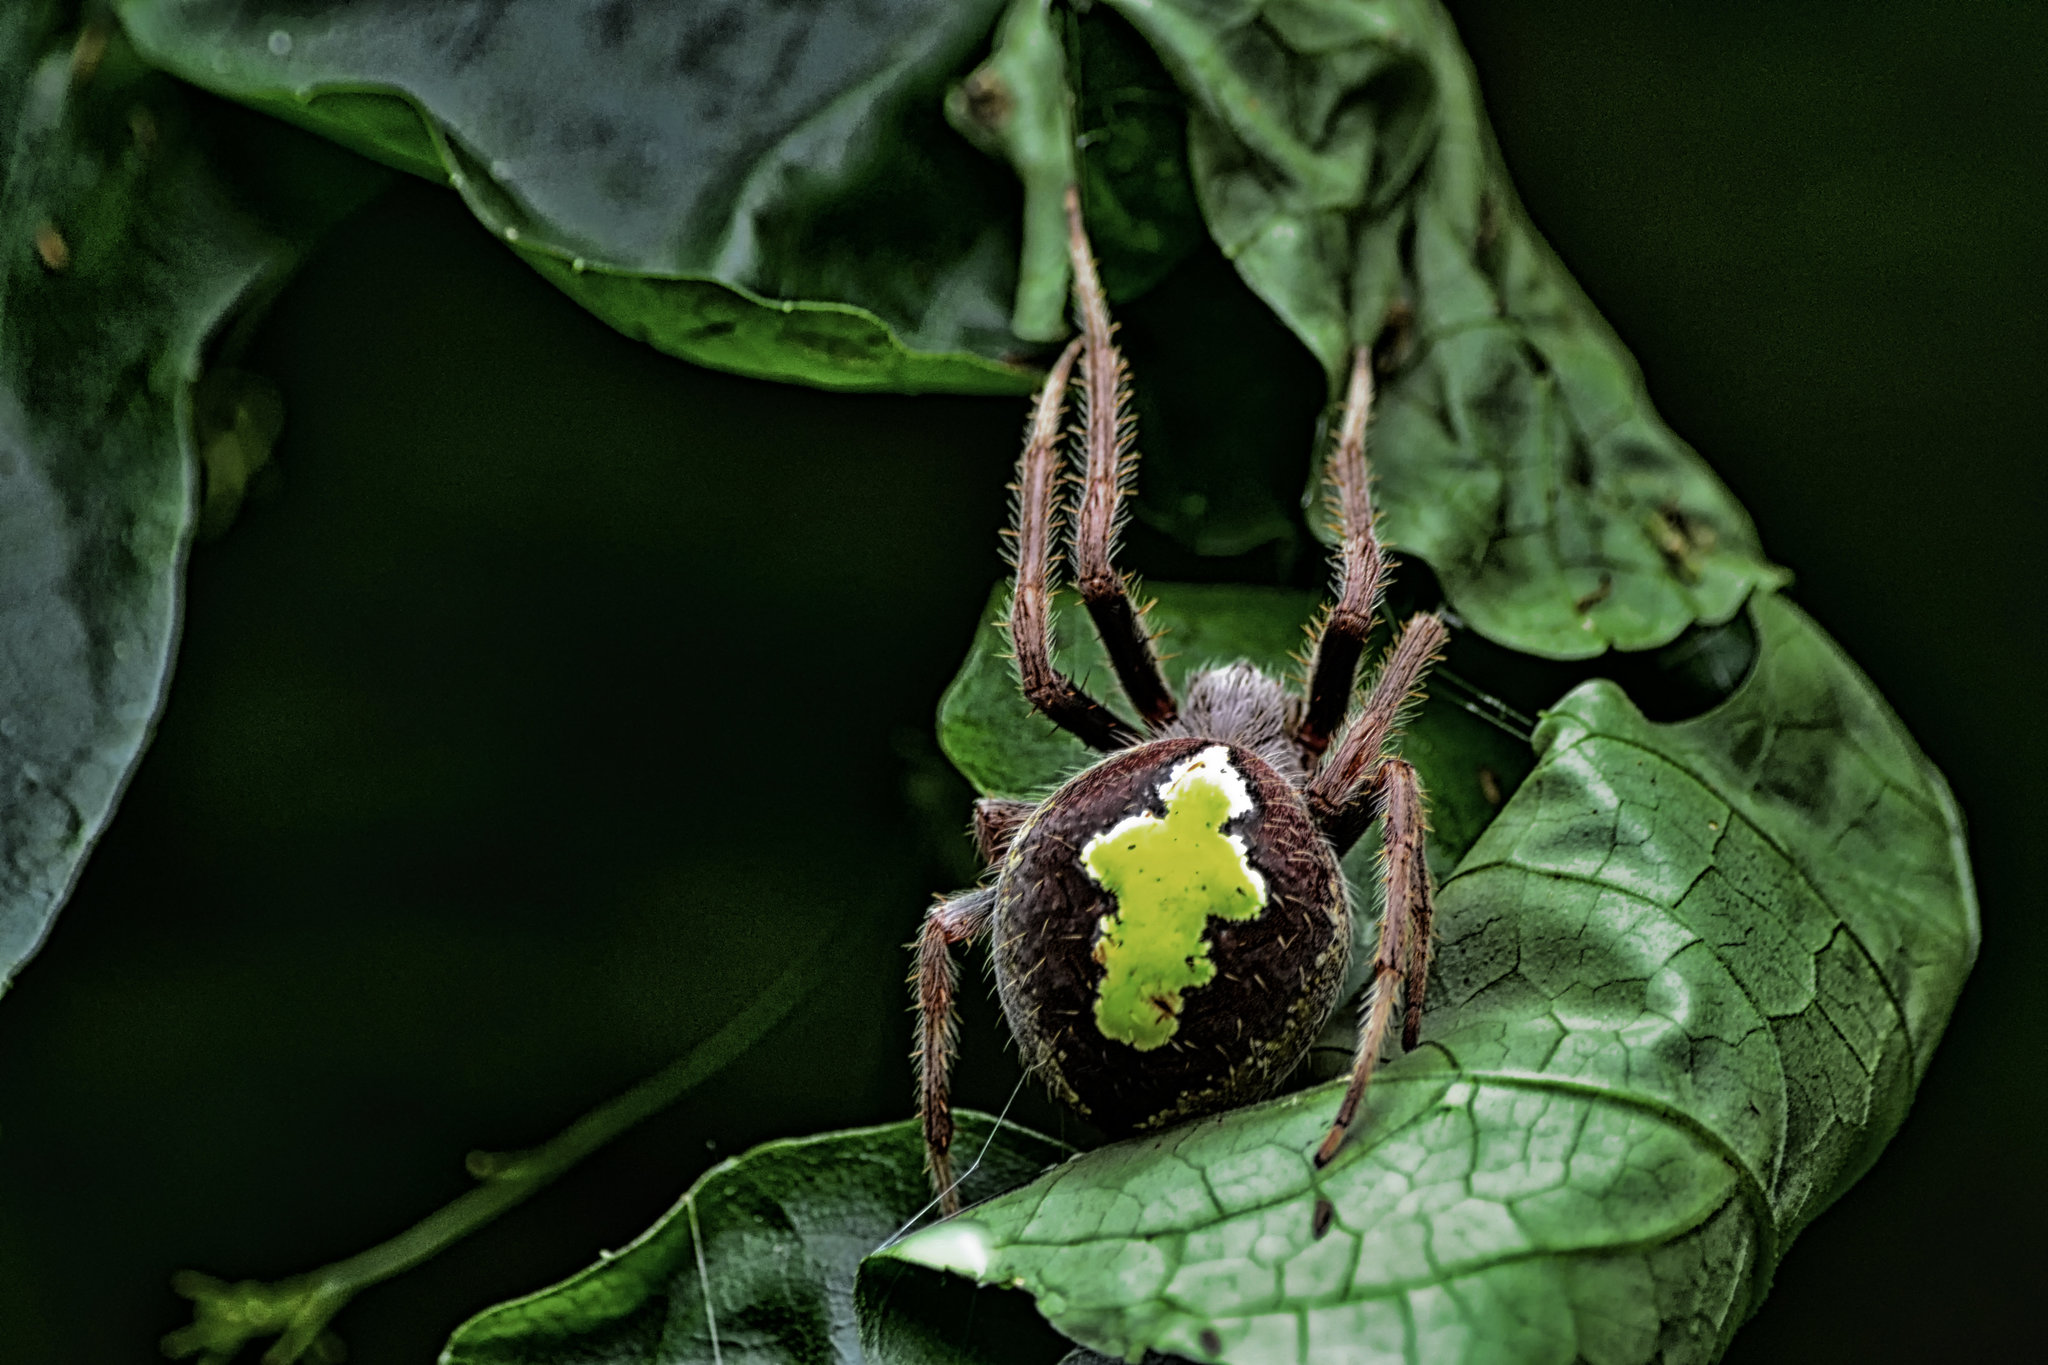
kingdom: Animalia
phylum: Arthropoda
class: Arachnida
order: Araneae
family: Araneidae
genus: Eriophora
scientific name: Eriophora ravilla
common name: Orb weavers
